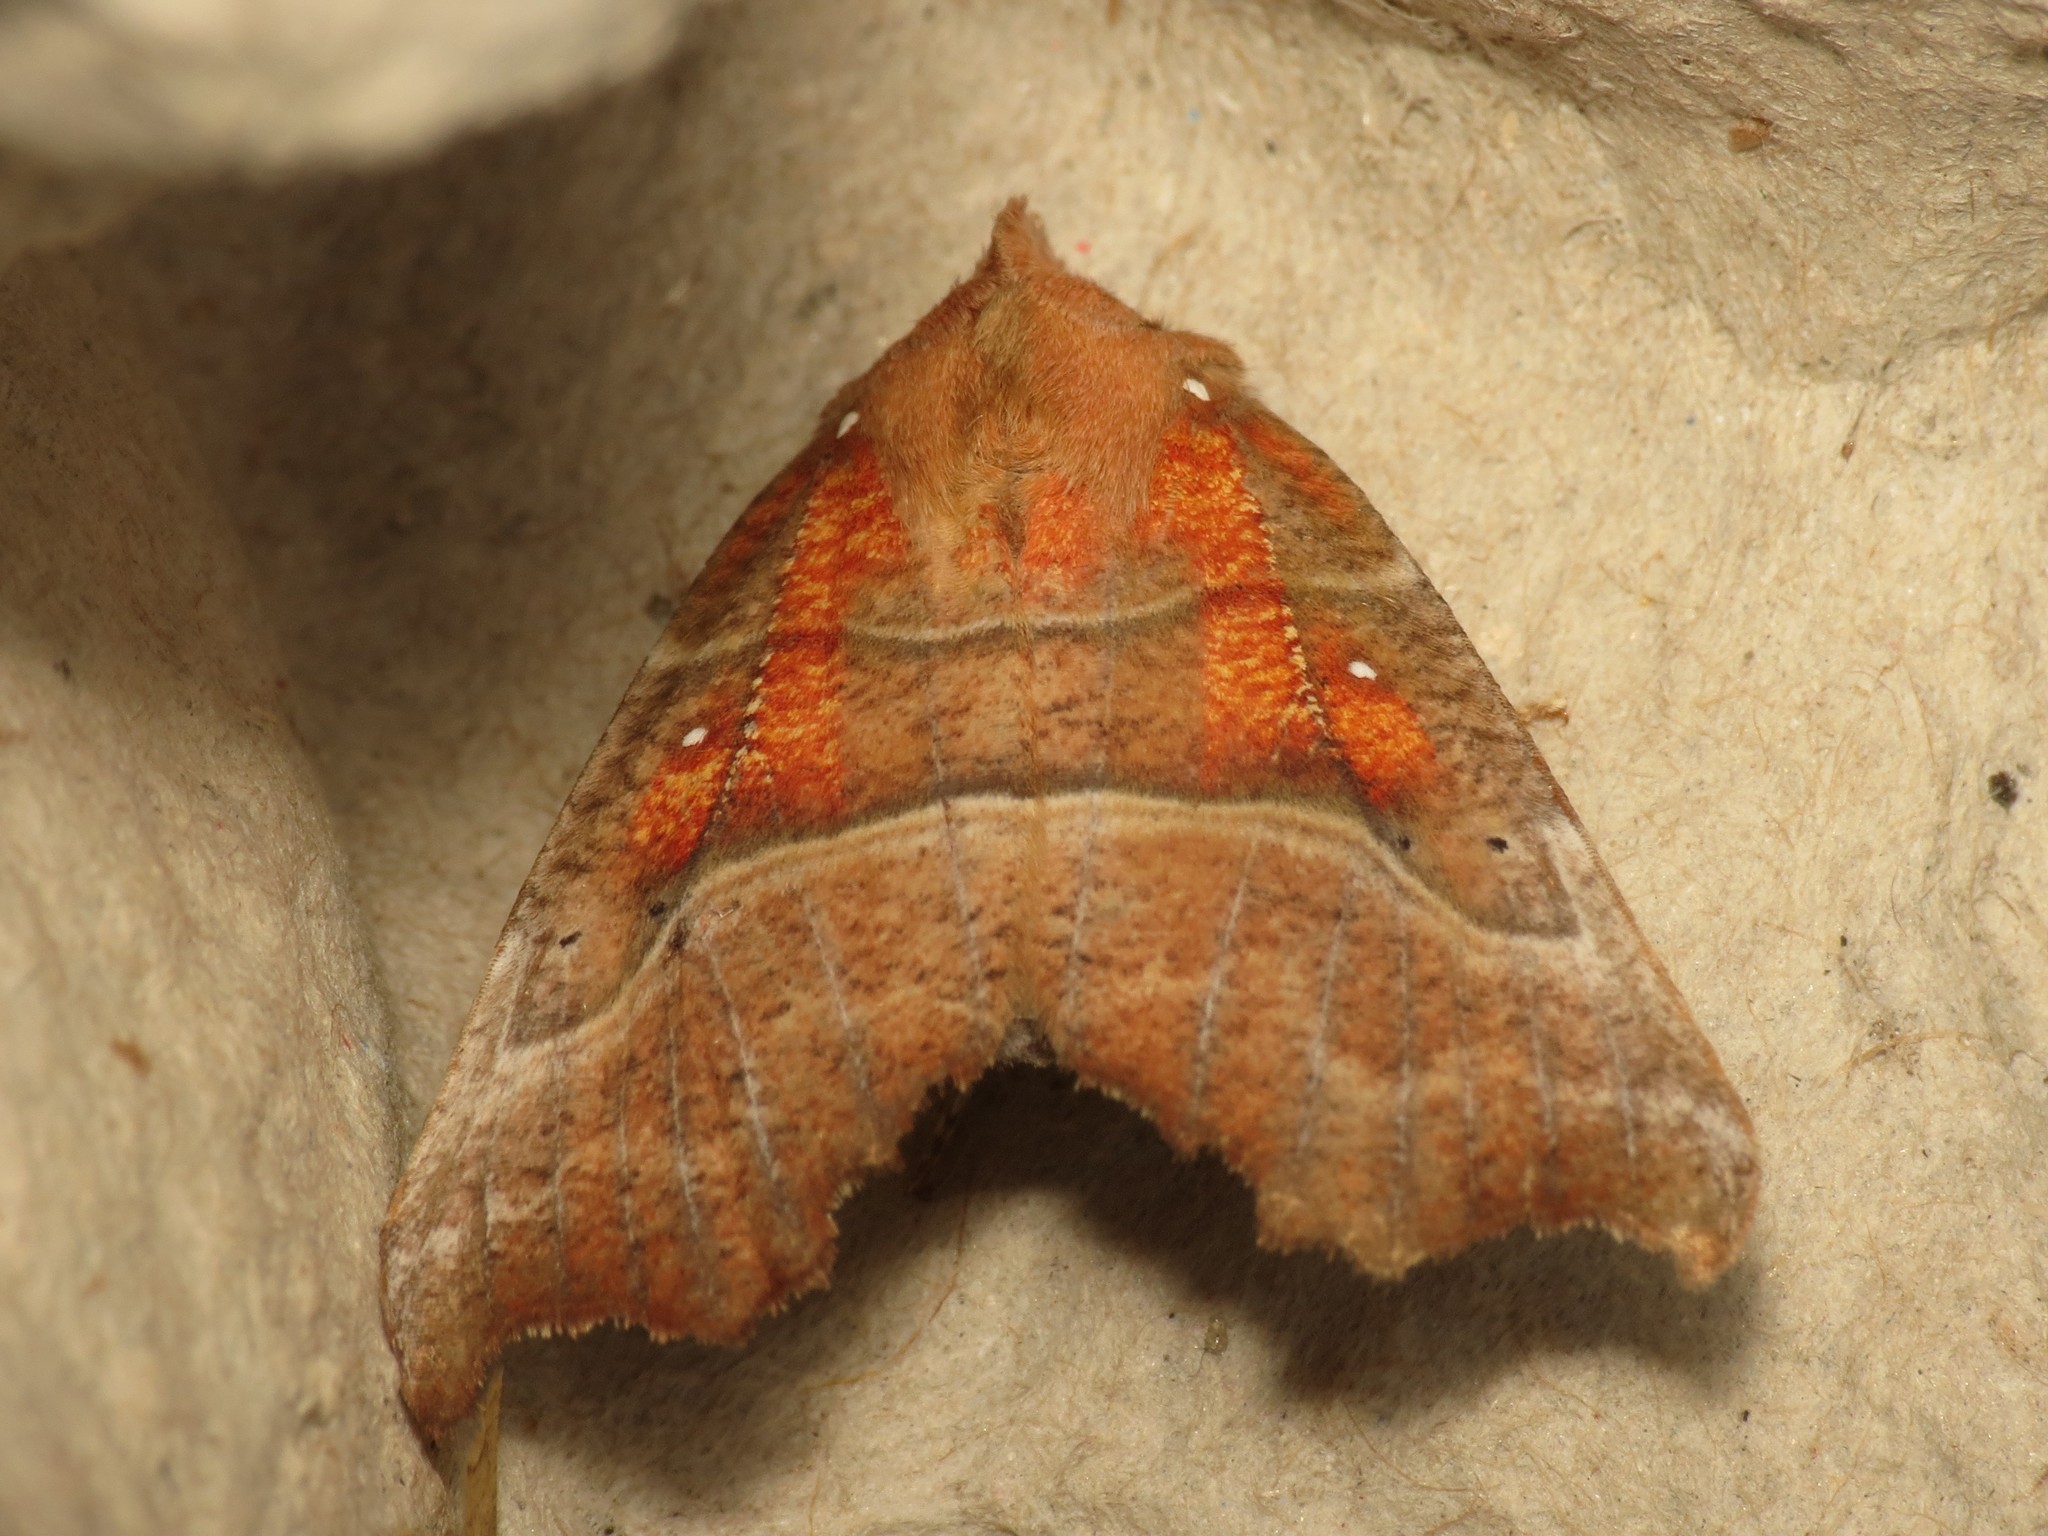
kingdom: Animalia
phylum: Arthropoda
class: Insecta
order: Lepidoptera
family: Erebidae
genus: Scoliopteryx
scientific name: Scoliopteryx libatrix
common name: Herald
